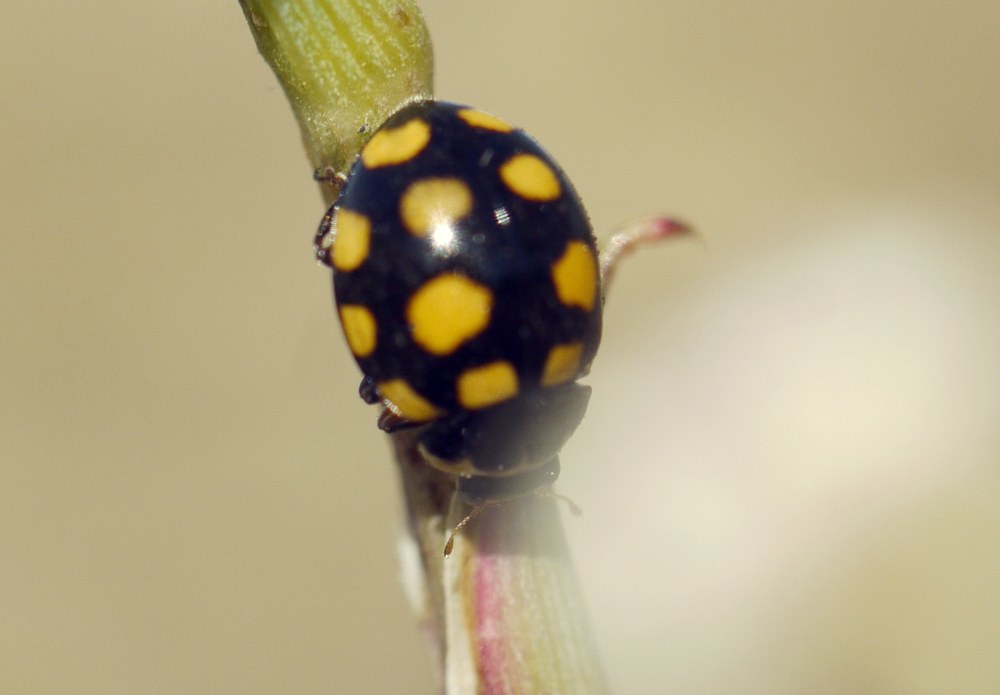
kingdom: Animalia
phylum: Arthropoda
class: Insecta
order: Coleoptera
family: Coccinellidae
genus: Coccinula
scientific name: Coccinula quatuordecimpustulata
